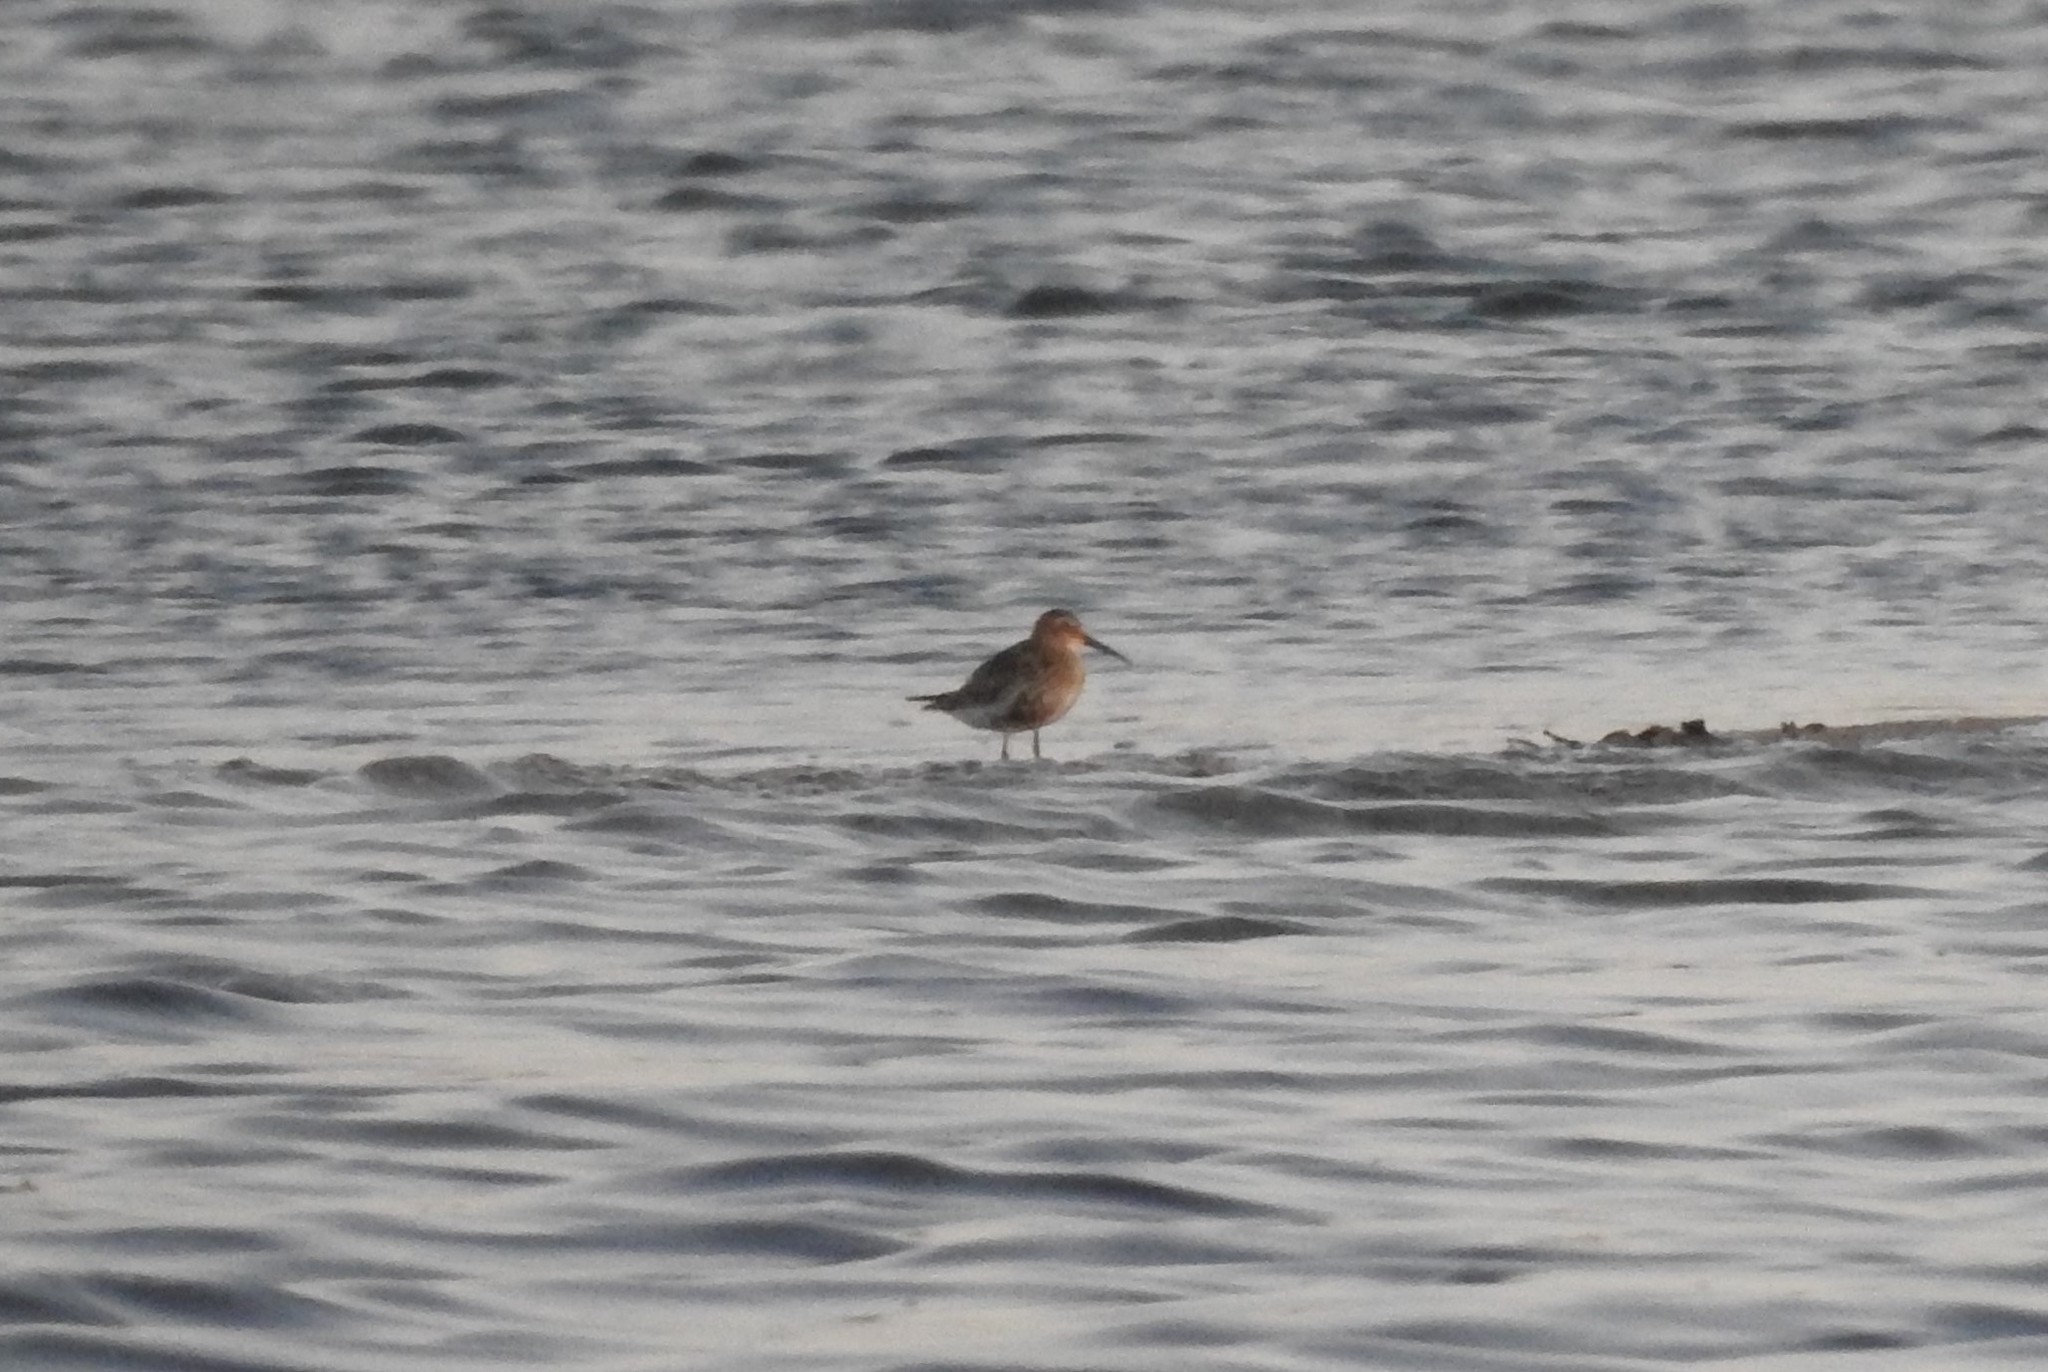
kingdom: Animalia
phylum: Chordata
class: Aves
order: Charadriiformes
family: Scolopacidae
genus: Calidris
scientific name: Calidris alpina
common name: Dunlin
